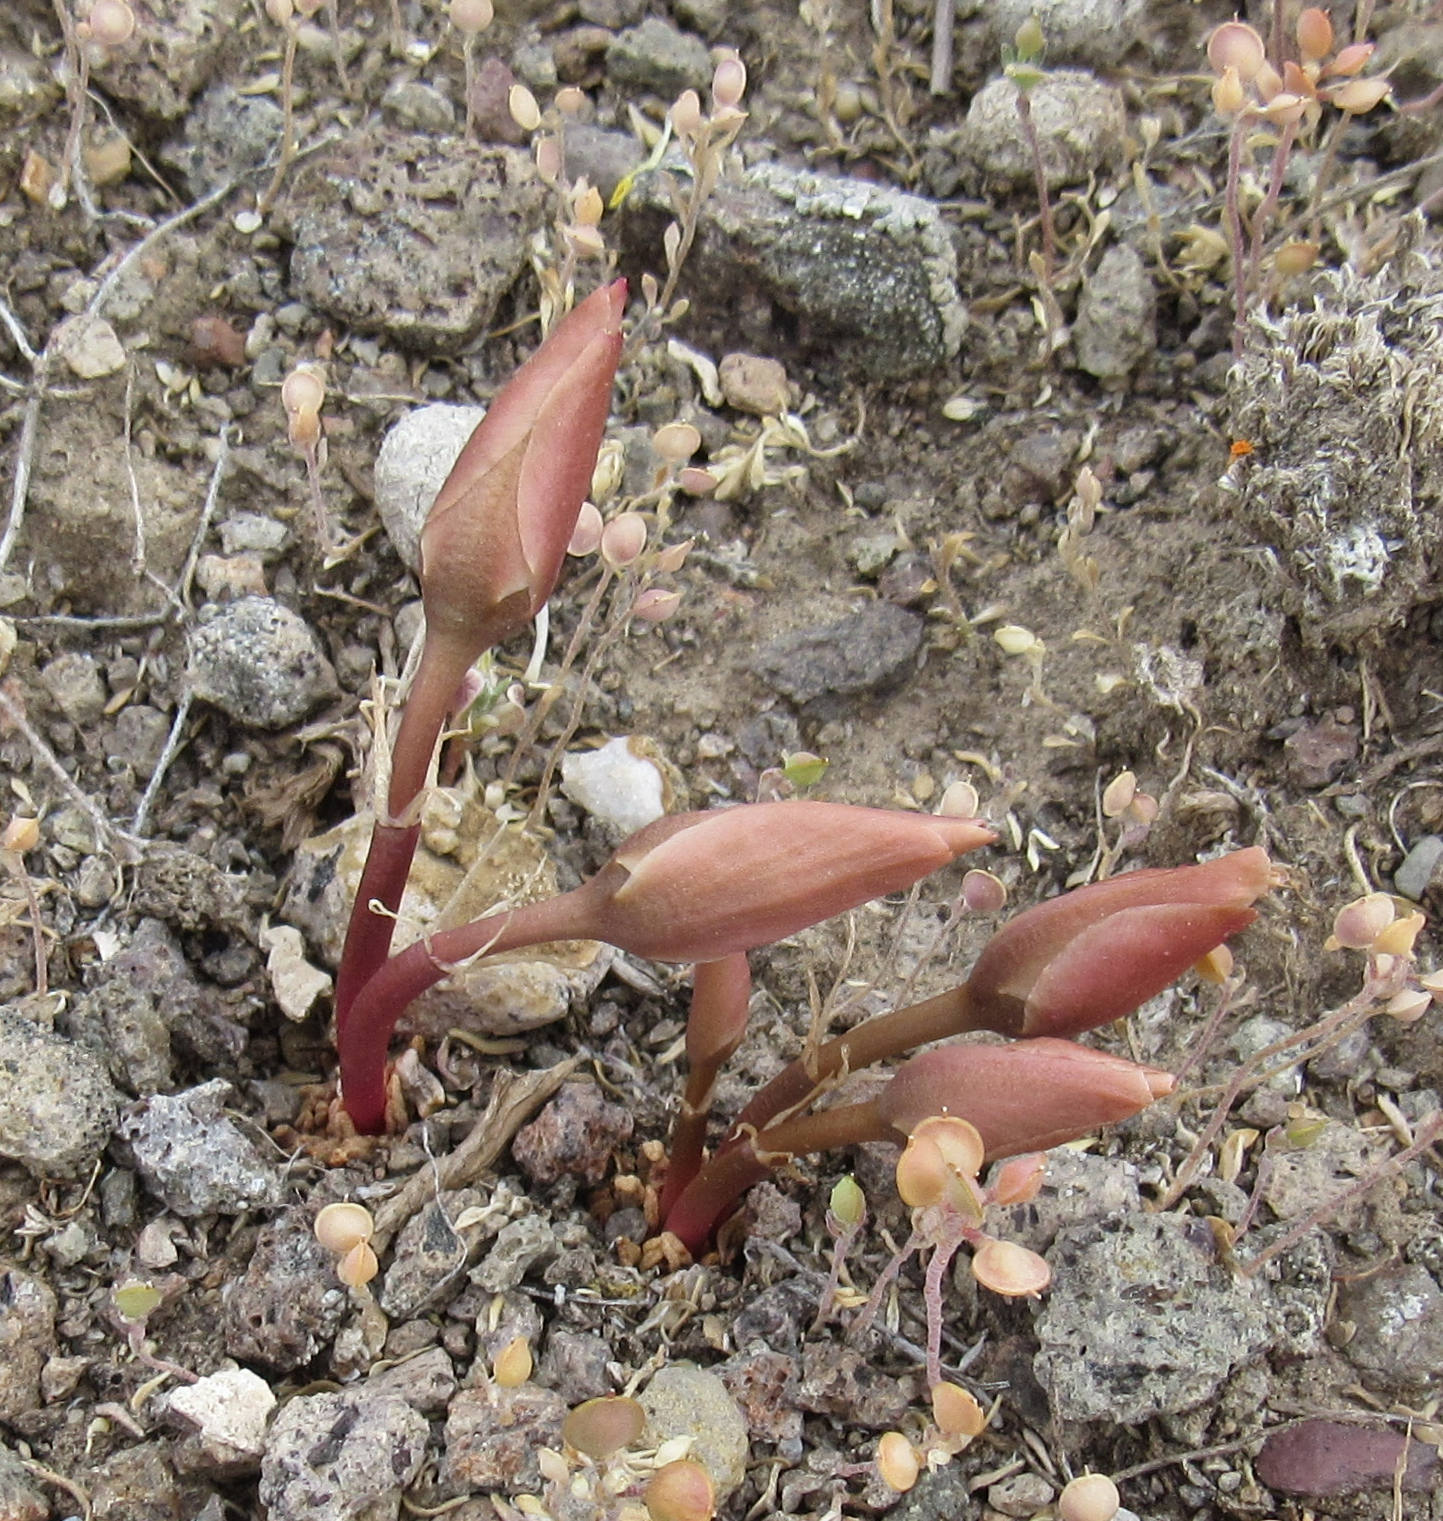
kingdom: Plantae
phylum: Tracheophyta
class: Magnoliopsida
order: Caryophyllales
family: Montiaceae
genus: Lewisia
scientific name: Lewisia rediviva
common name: Bitter-root
